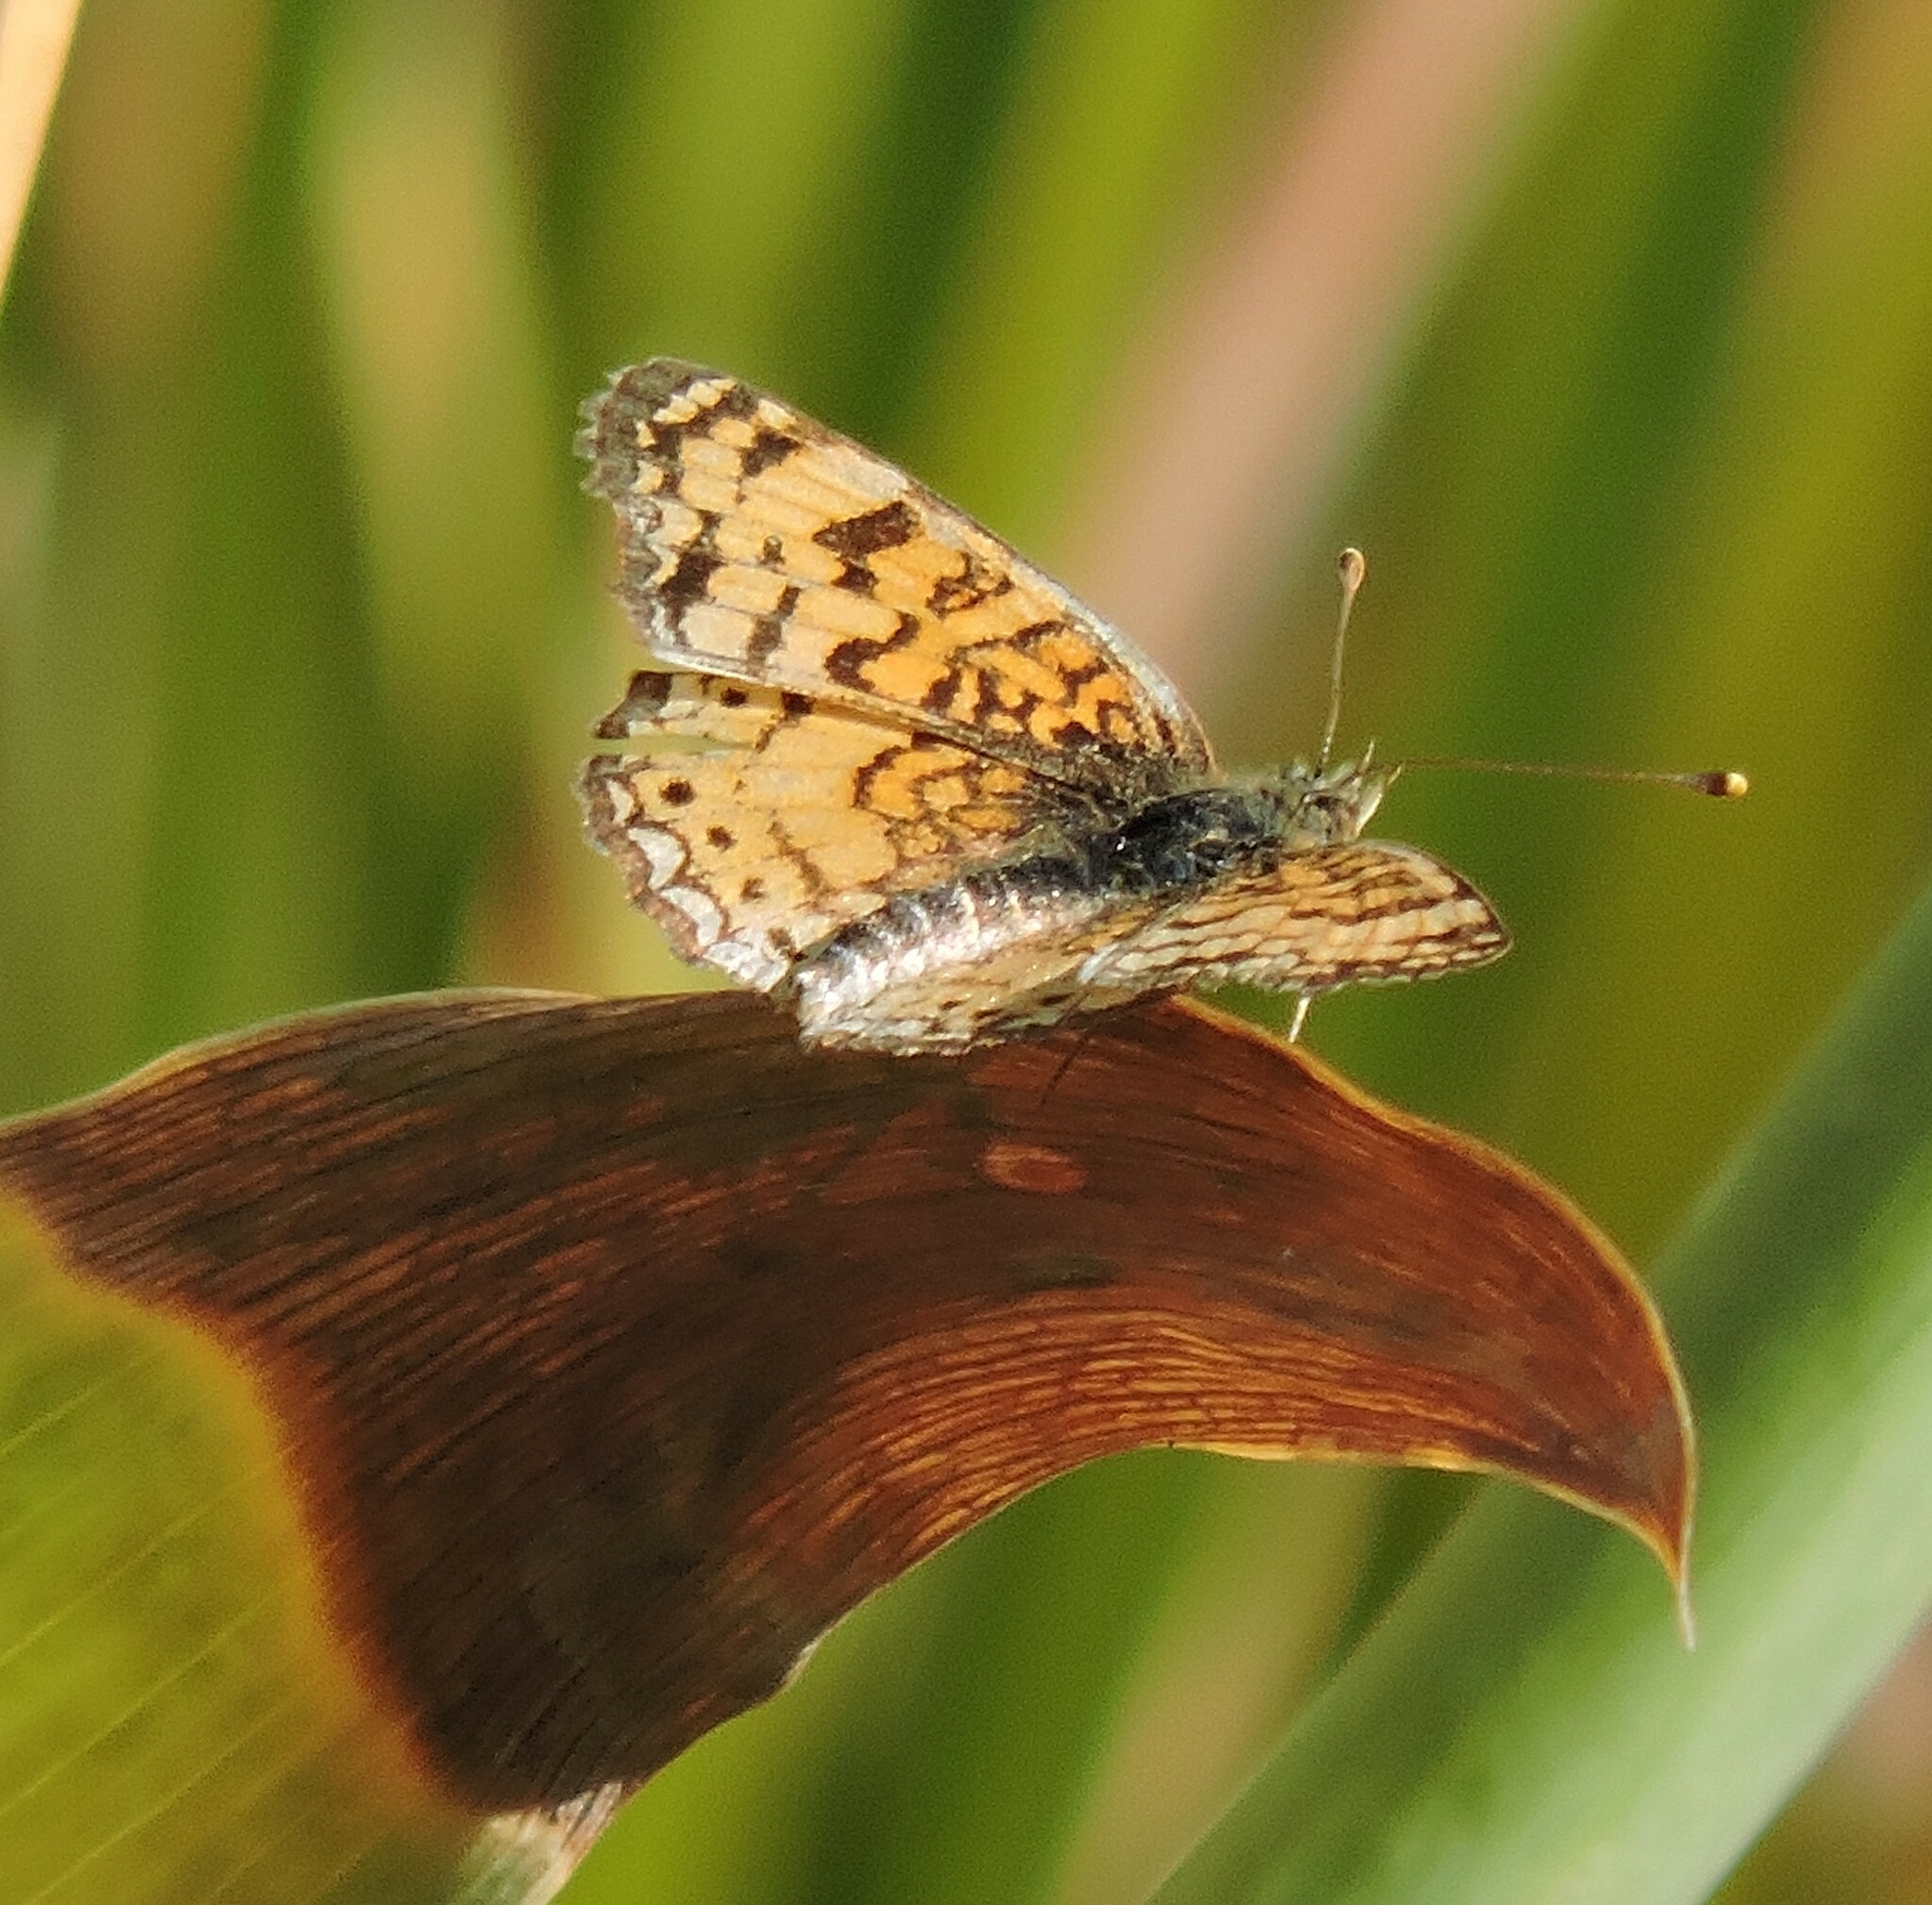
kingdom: Animalia
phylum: Arthropoda
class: Insecta
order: Lepidoptera
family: Nymphalidae
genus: Eresia
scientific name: Eresia aveyrona
